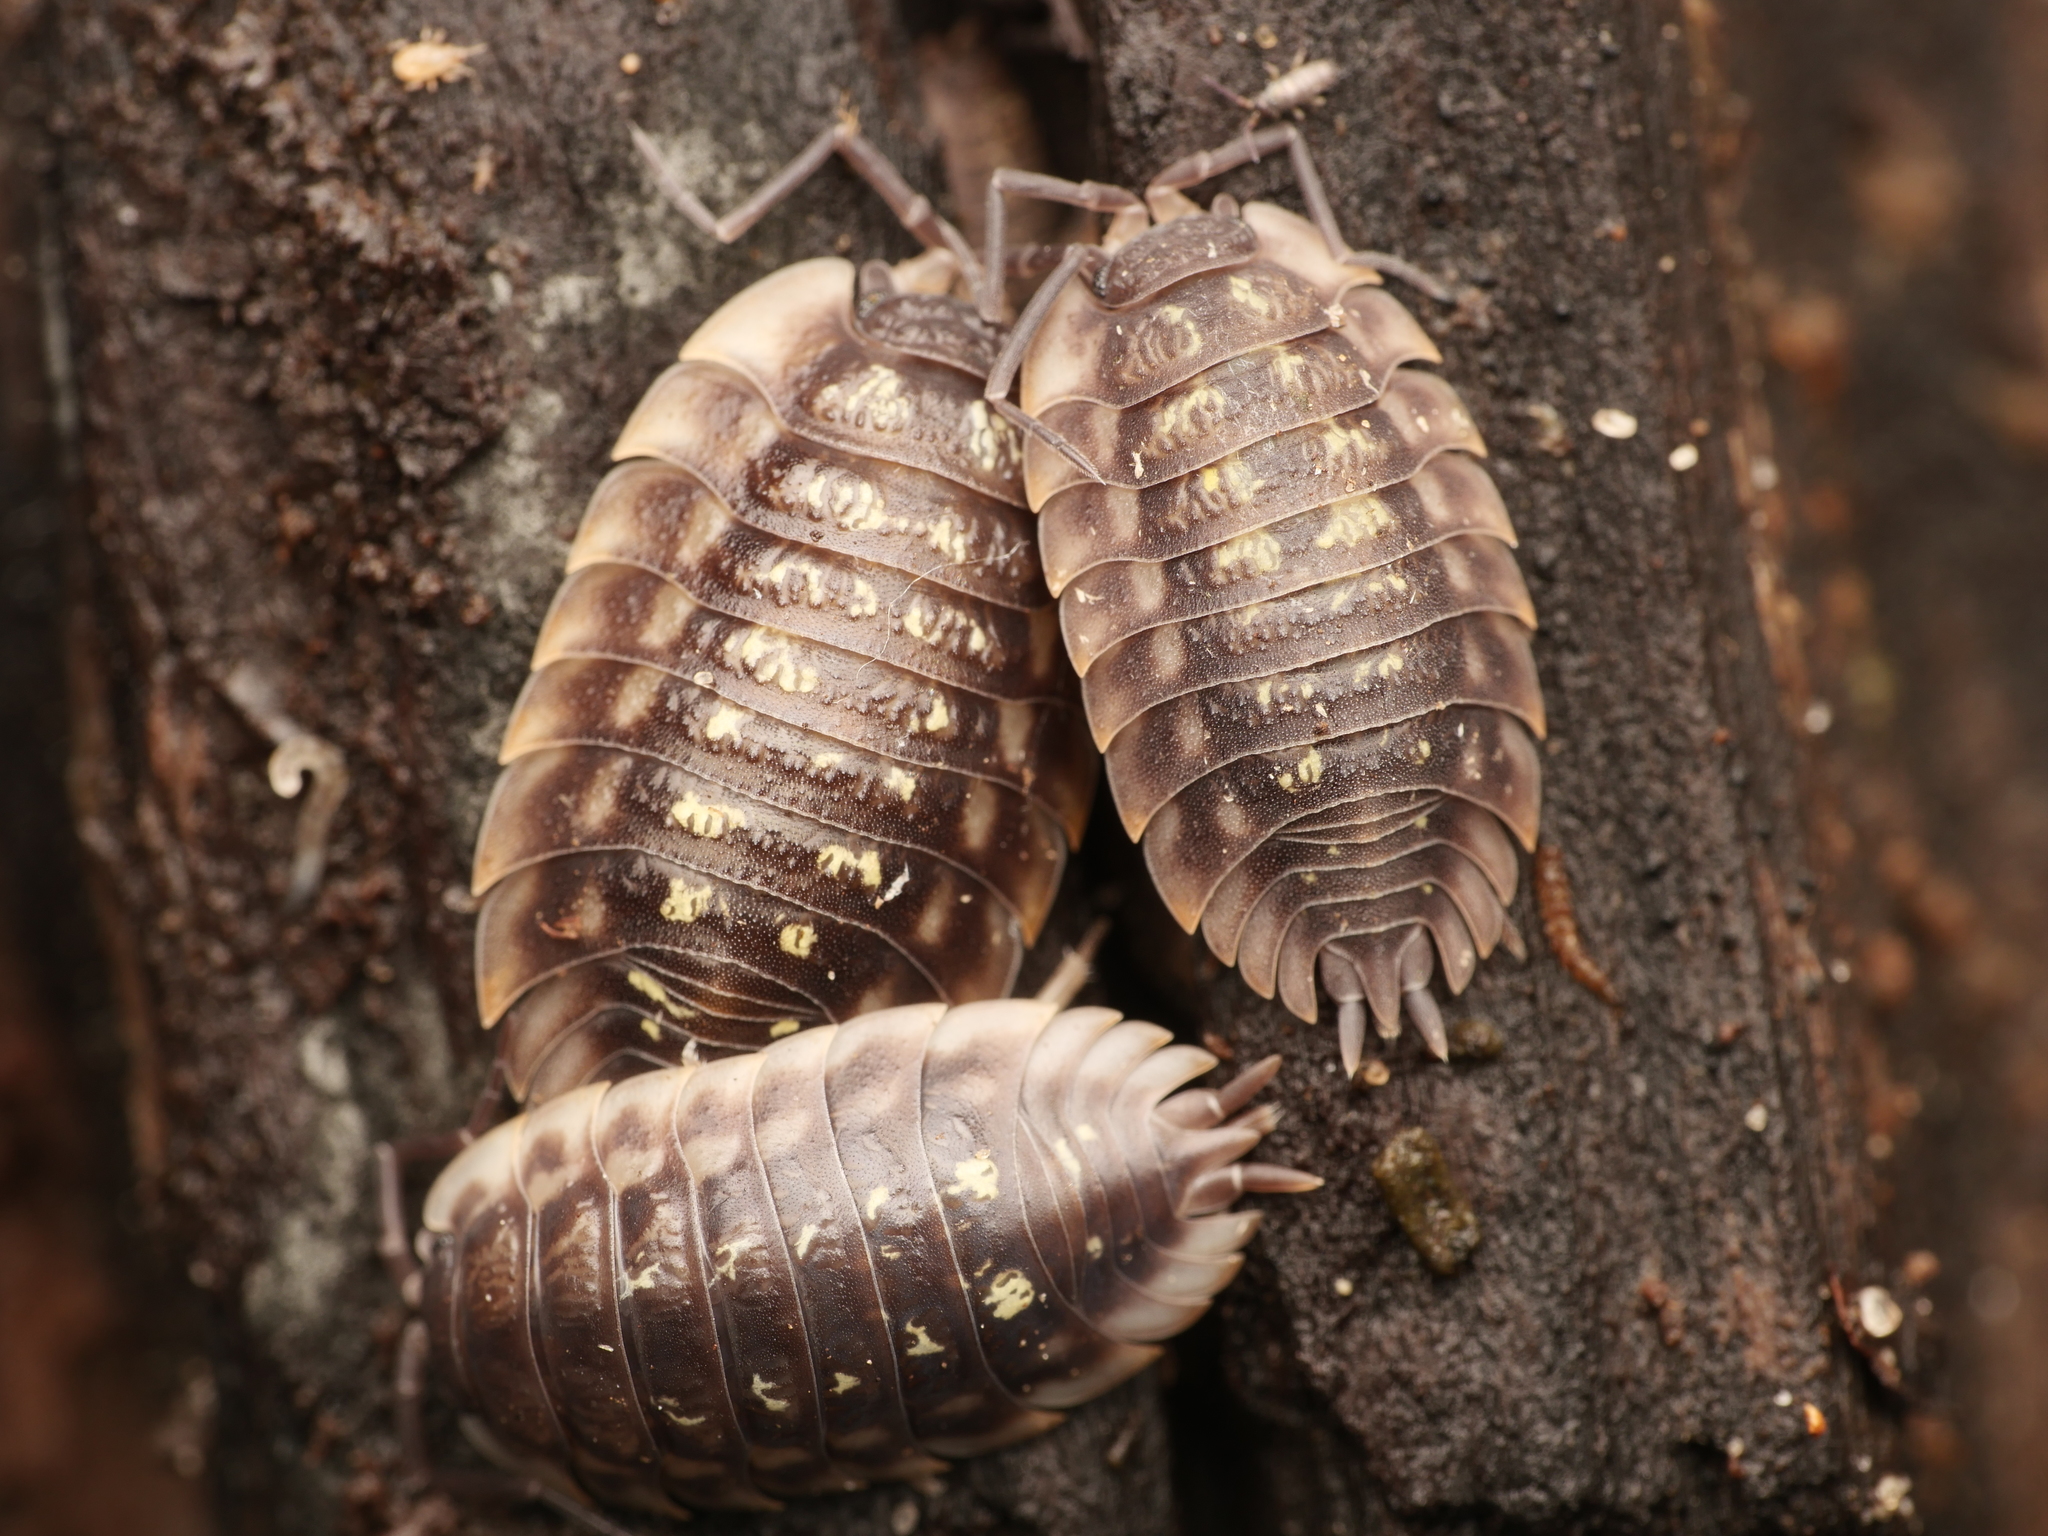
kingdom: Animalia
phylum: Arthropoda
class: Malacostraca
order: Isopoda
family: Oniscidae
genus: Oniscus
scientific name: Oniscus asellus
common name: Common shiny woodlouse
